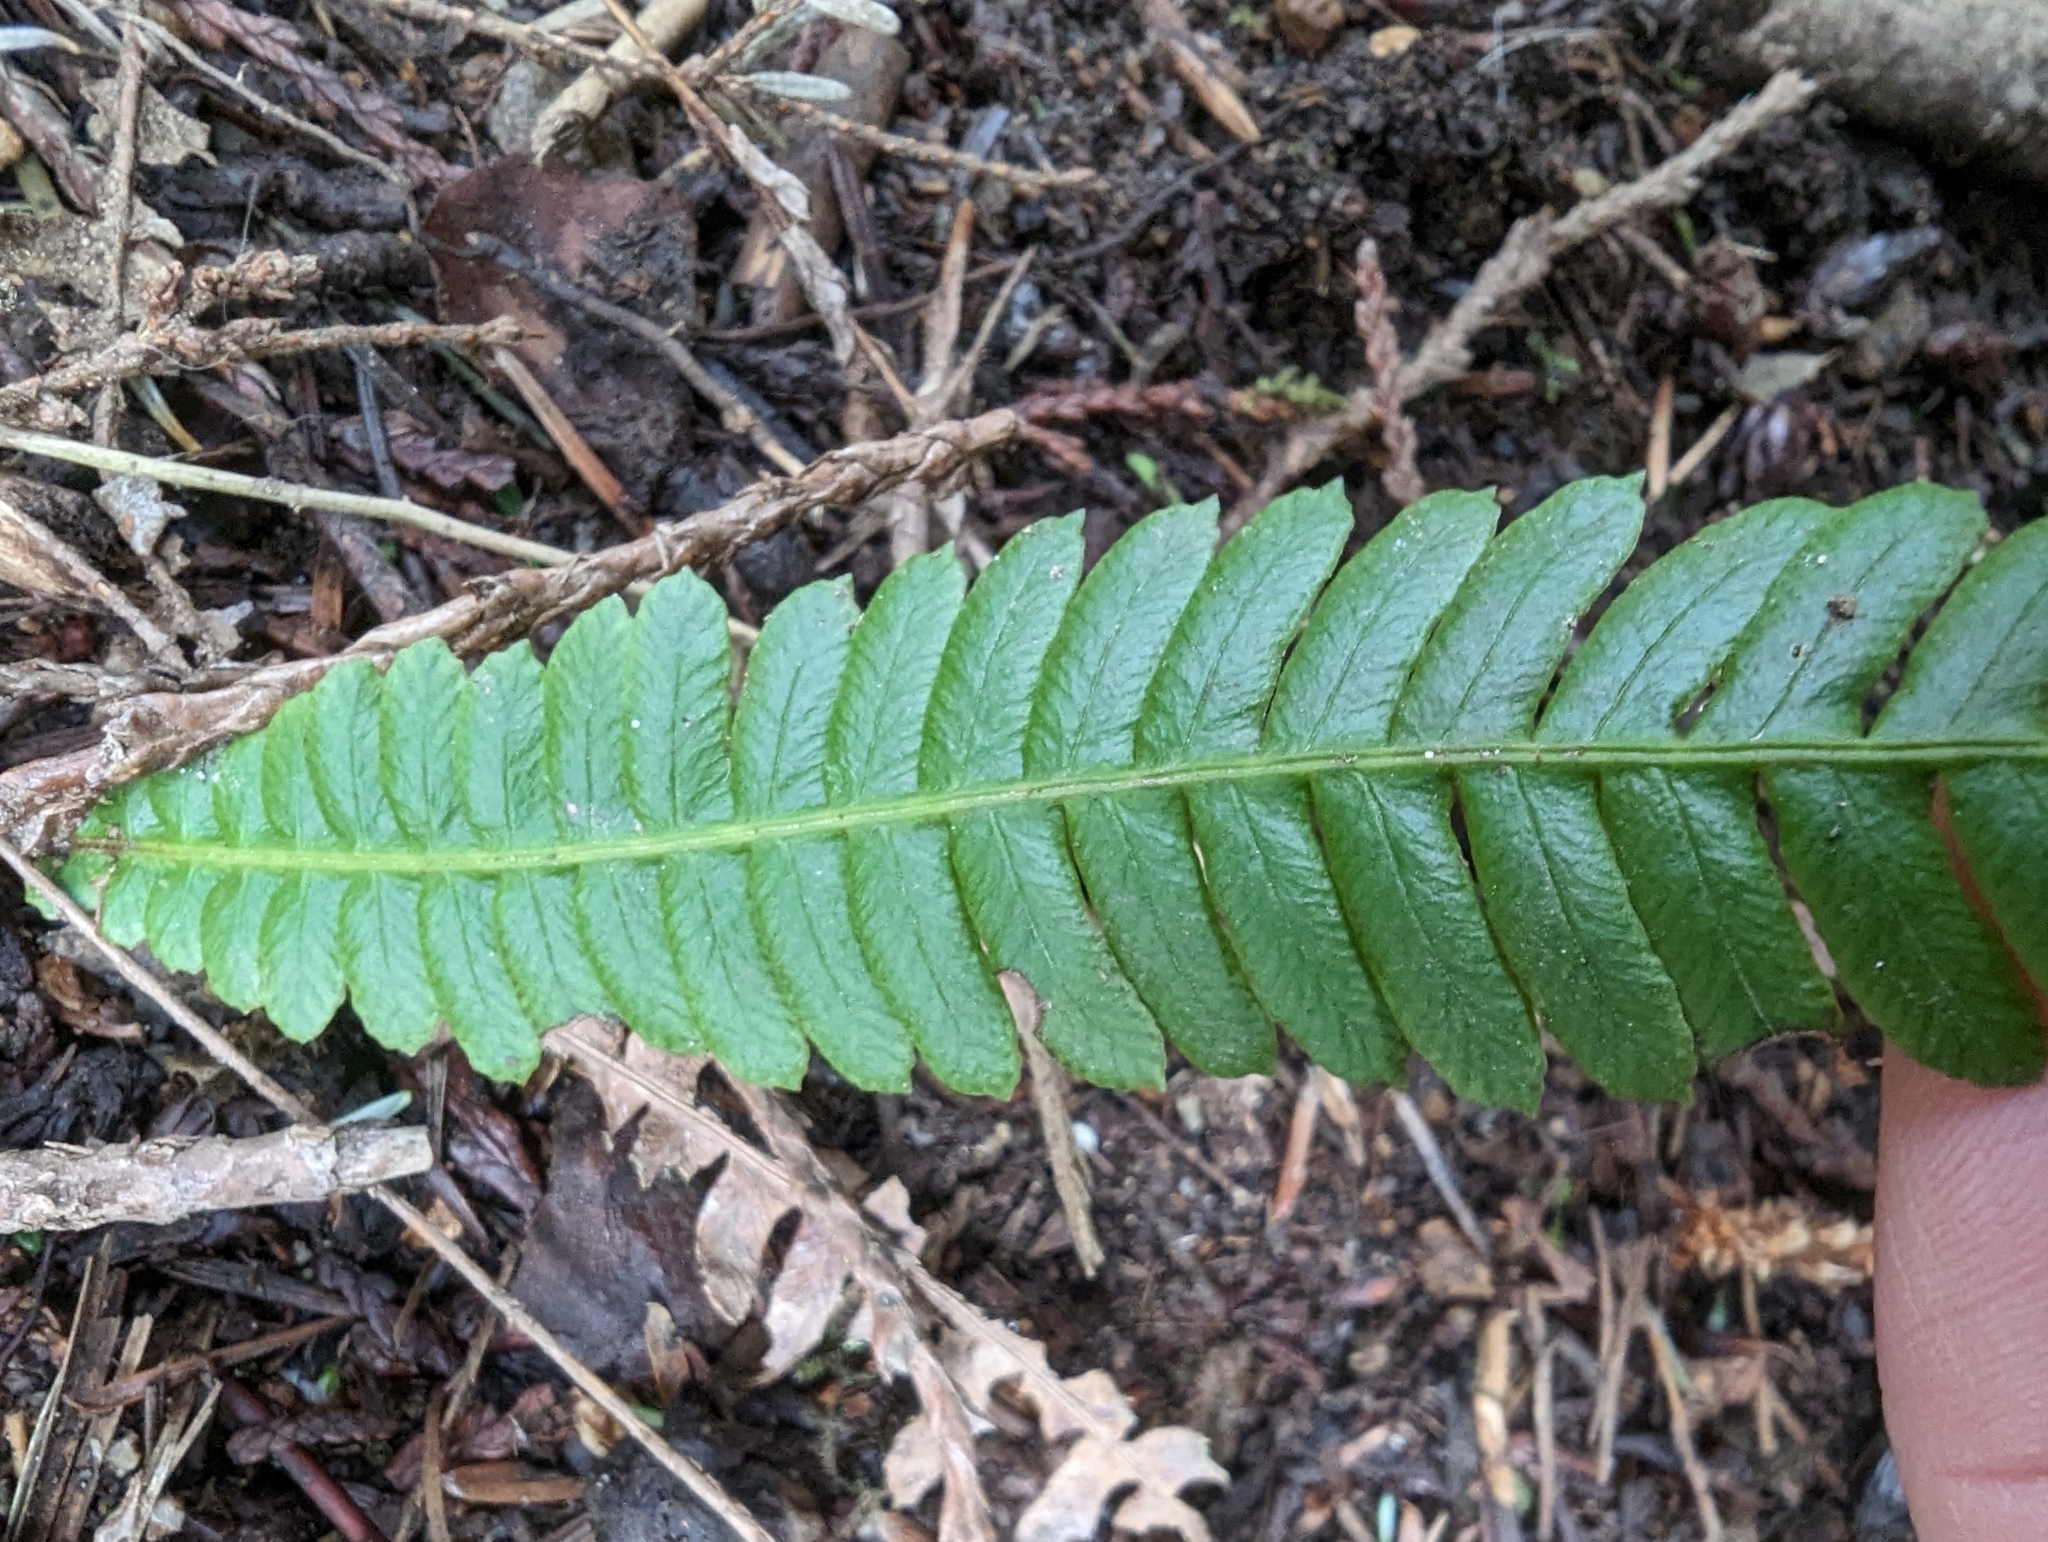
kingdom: Plantae
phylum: Tracheophyta
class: Polypodiopsida
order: Polypodiales
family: Blechnaceae
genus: Struthiopteris
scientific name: Struthiopteris spicant
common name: Deer fern
